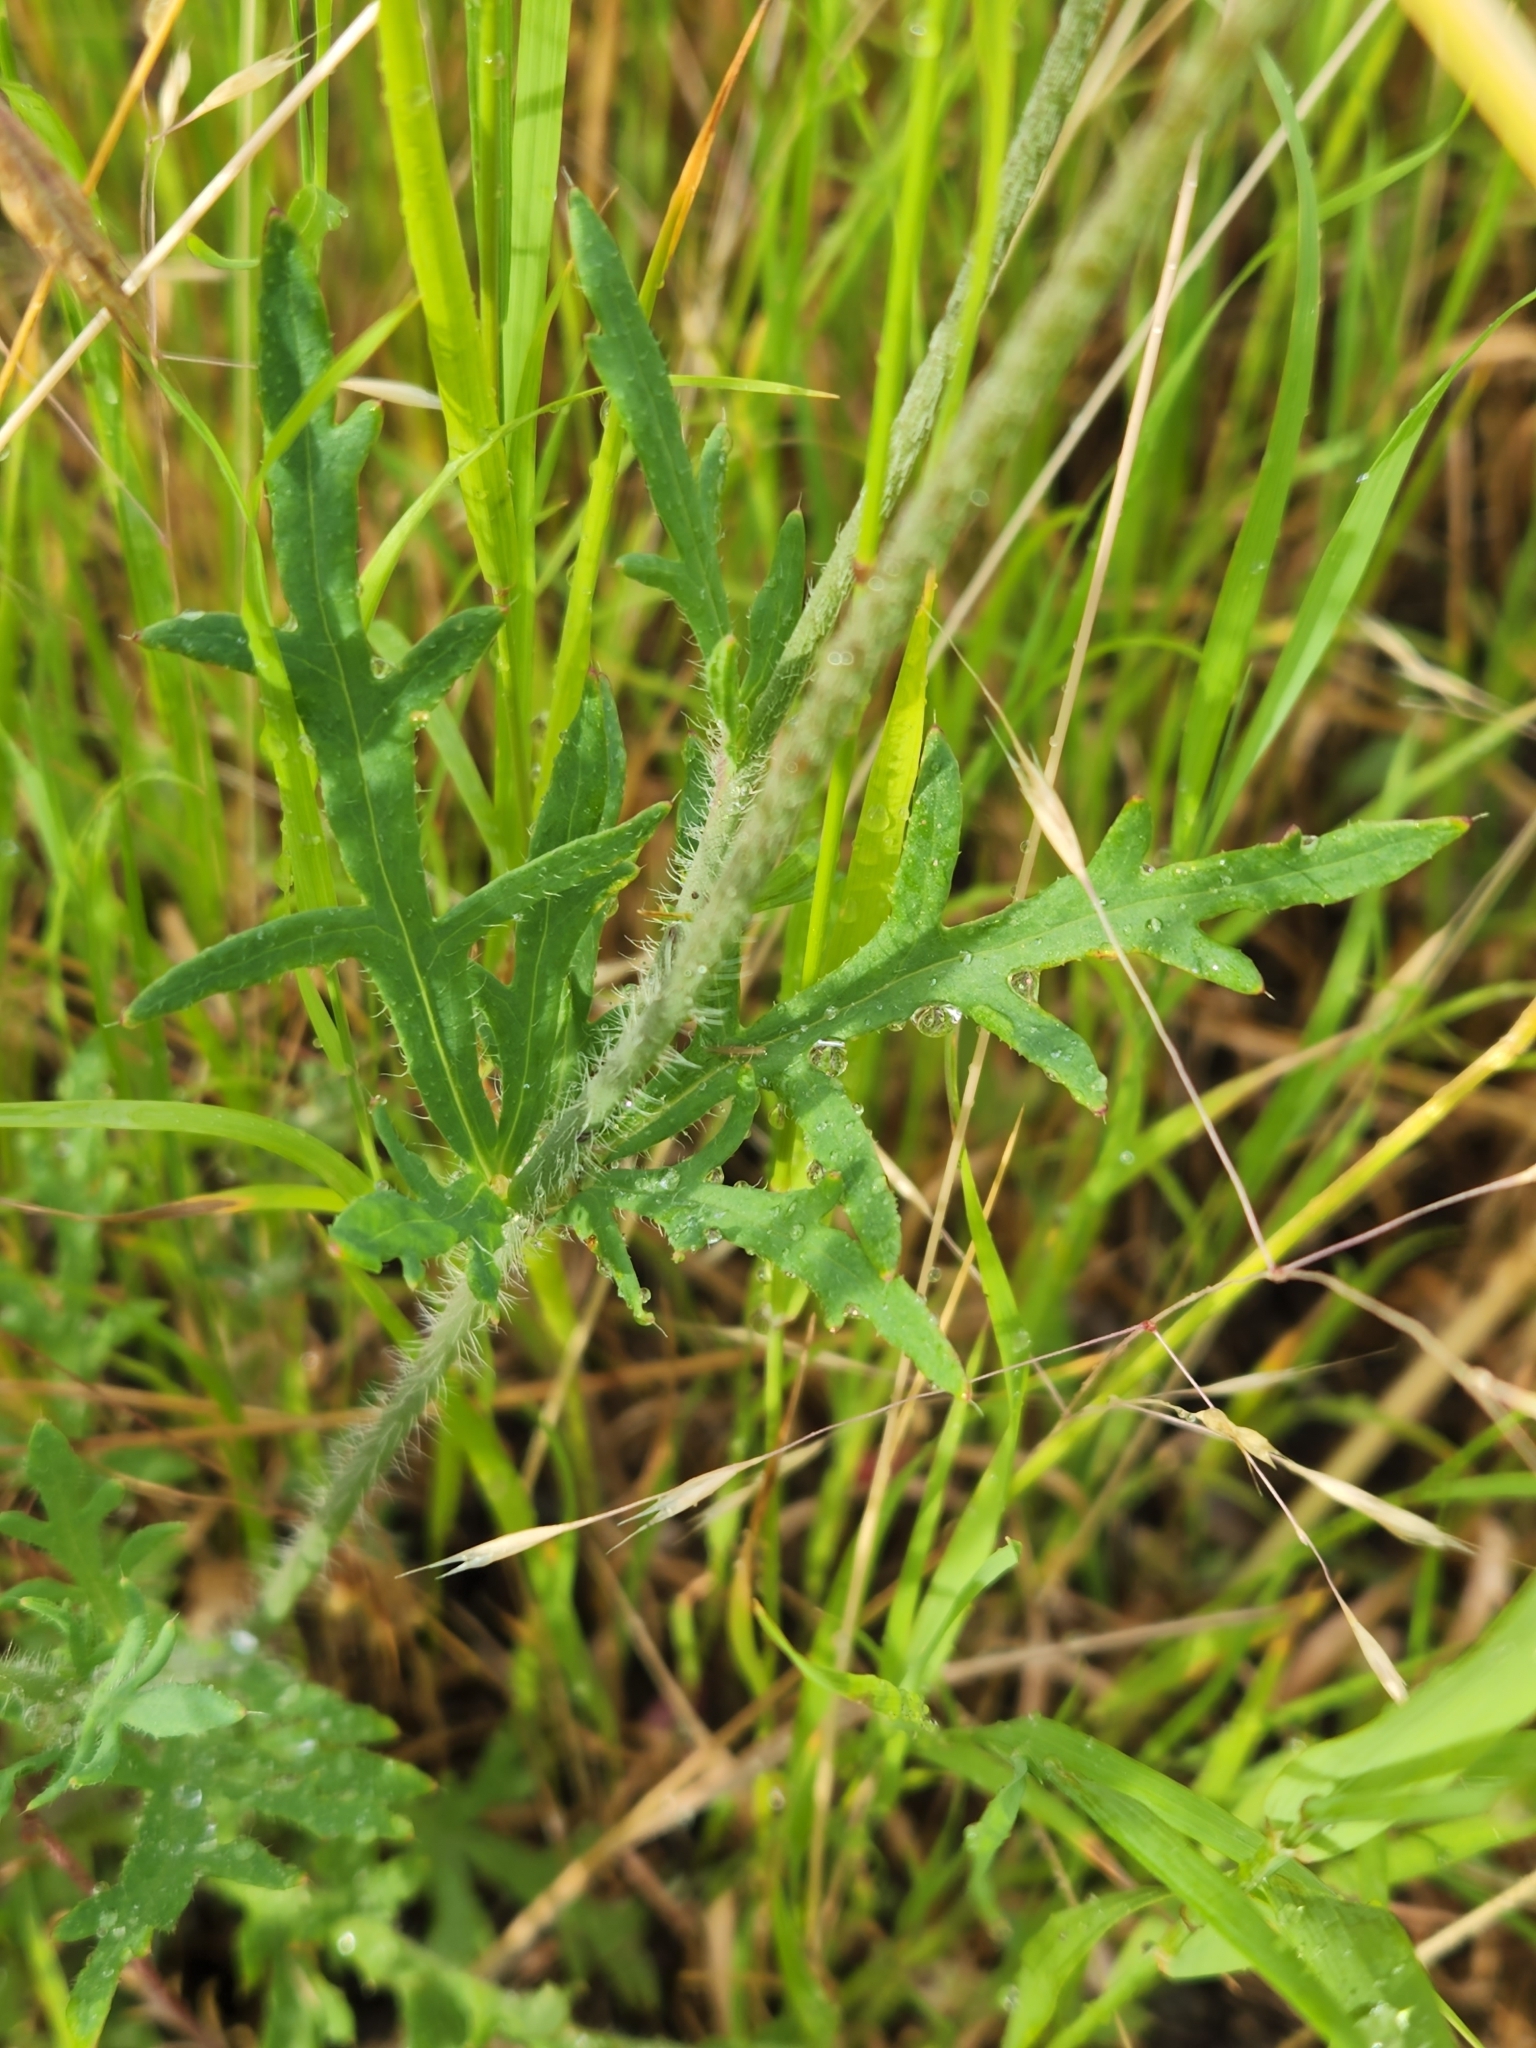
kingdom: Plantae
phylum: Tracheophyta
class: Magnoliopsida
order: Ranunculales
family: Papaveraceae
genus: Papaver
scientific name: Papaver dubium
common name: Long-headed poppy
